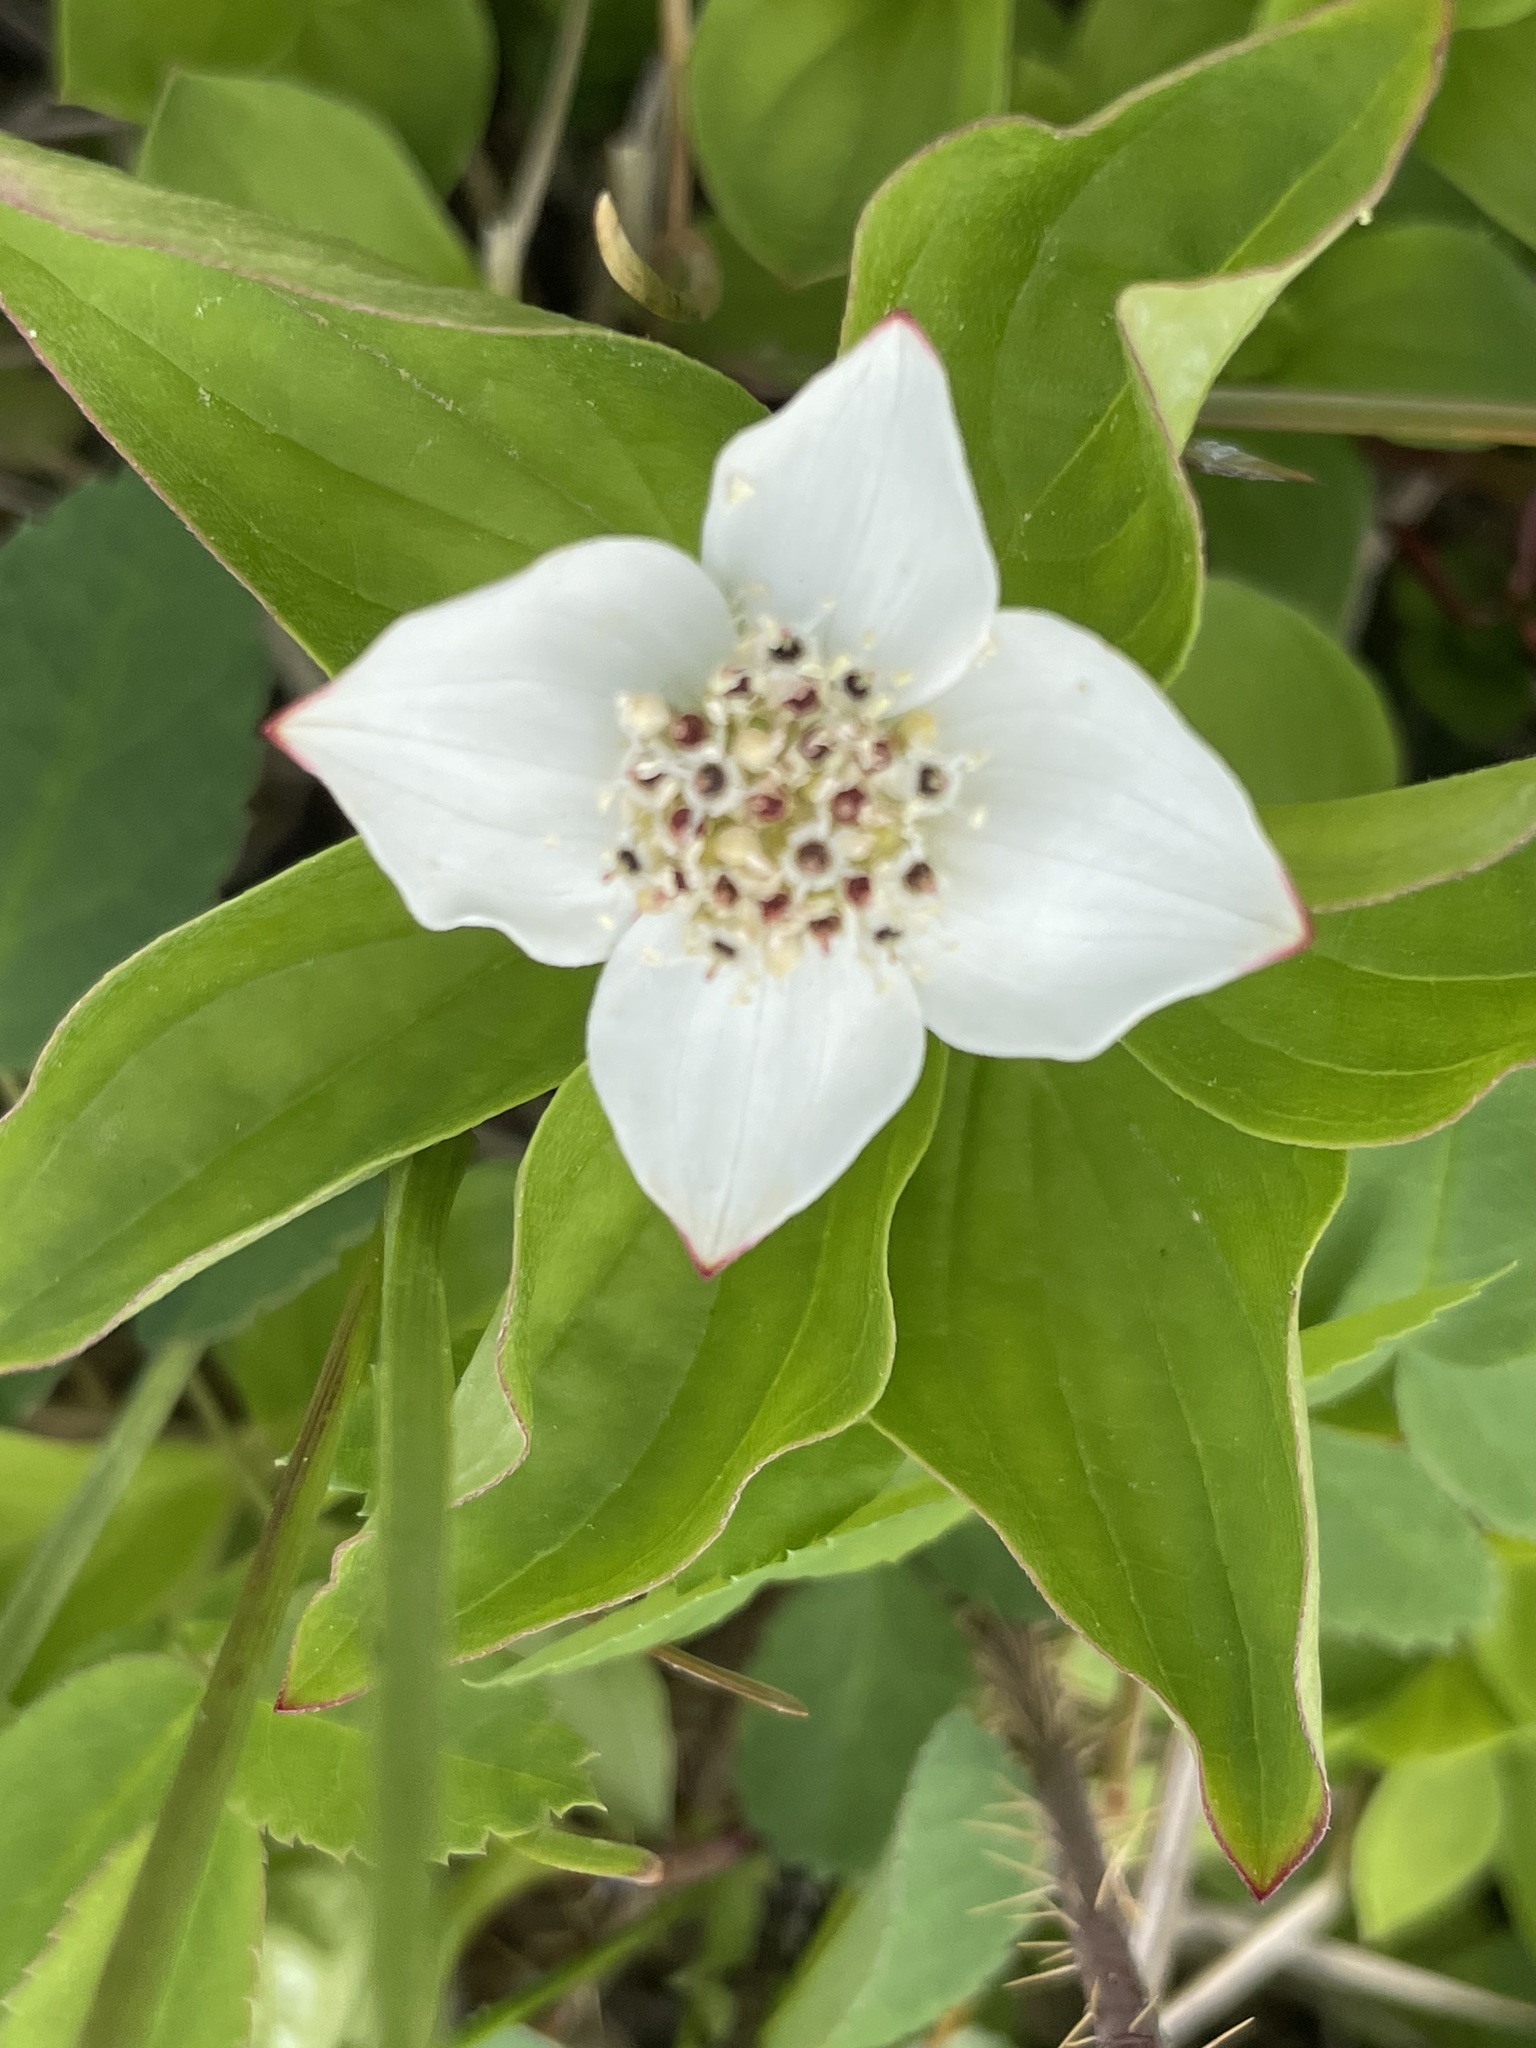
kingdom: Plantae
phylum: Tracheophyta
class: Magnoliopsida
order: Cornales
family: Cornaceae
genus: Cornus
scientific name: Cornus canadensis
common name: Creeping dogwood
